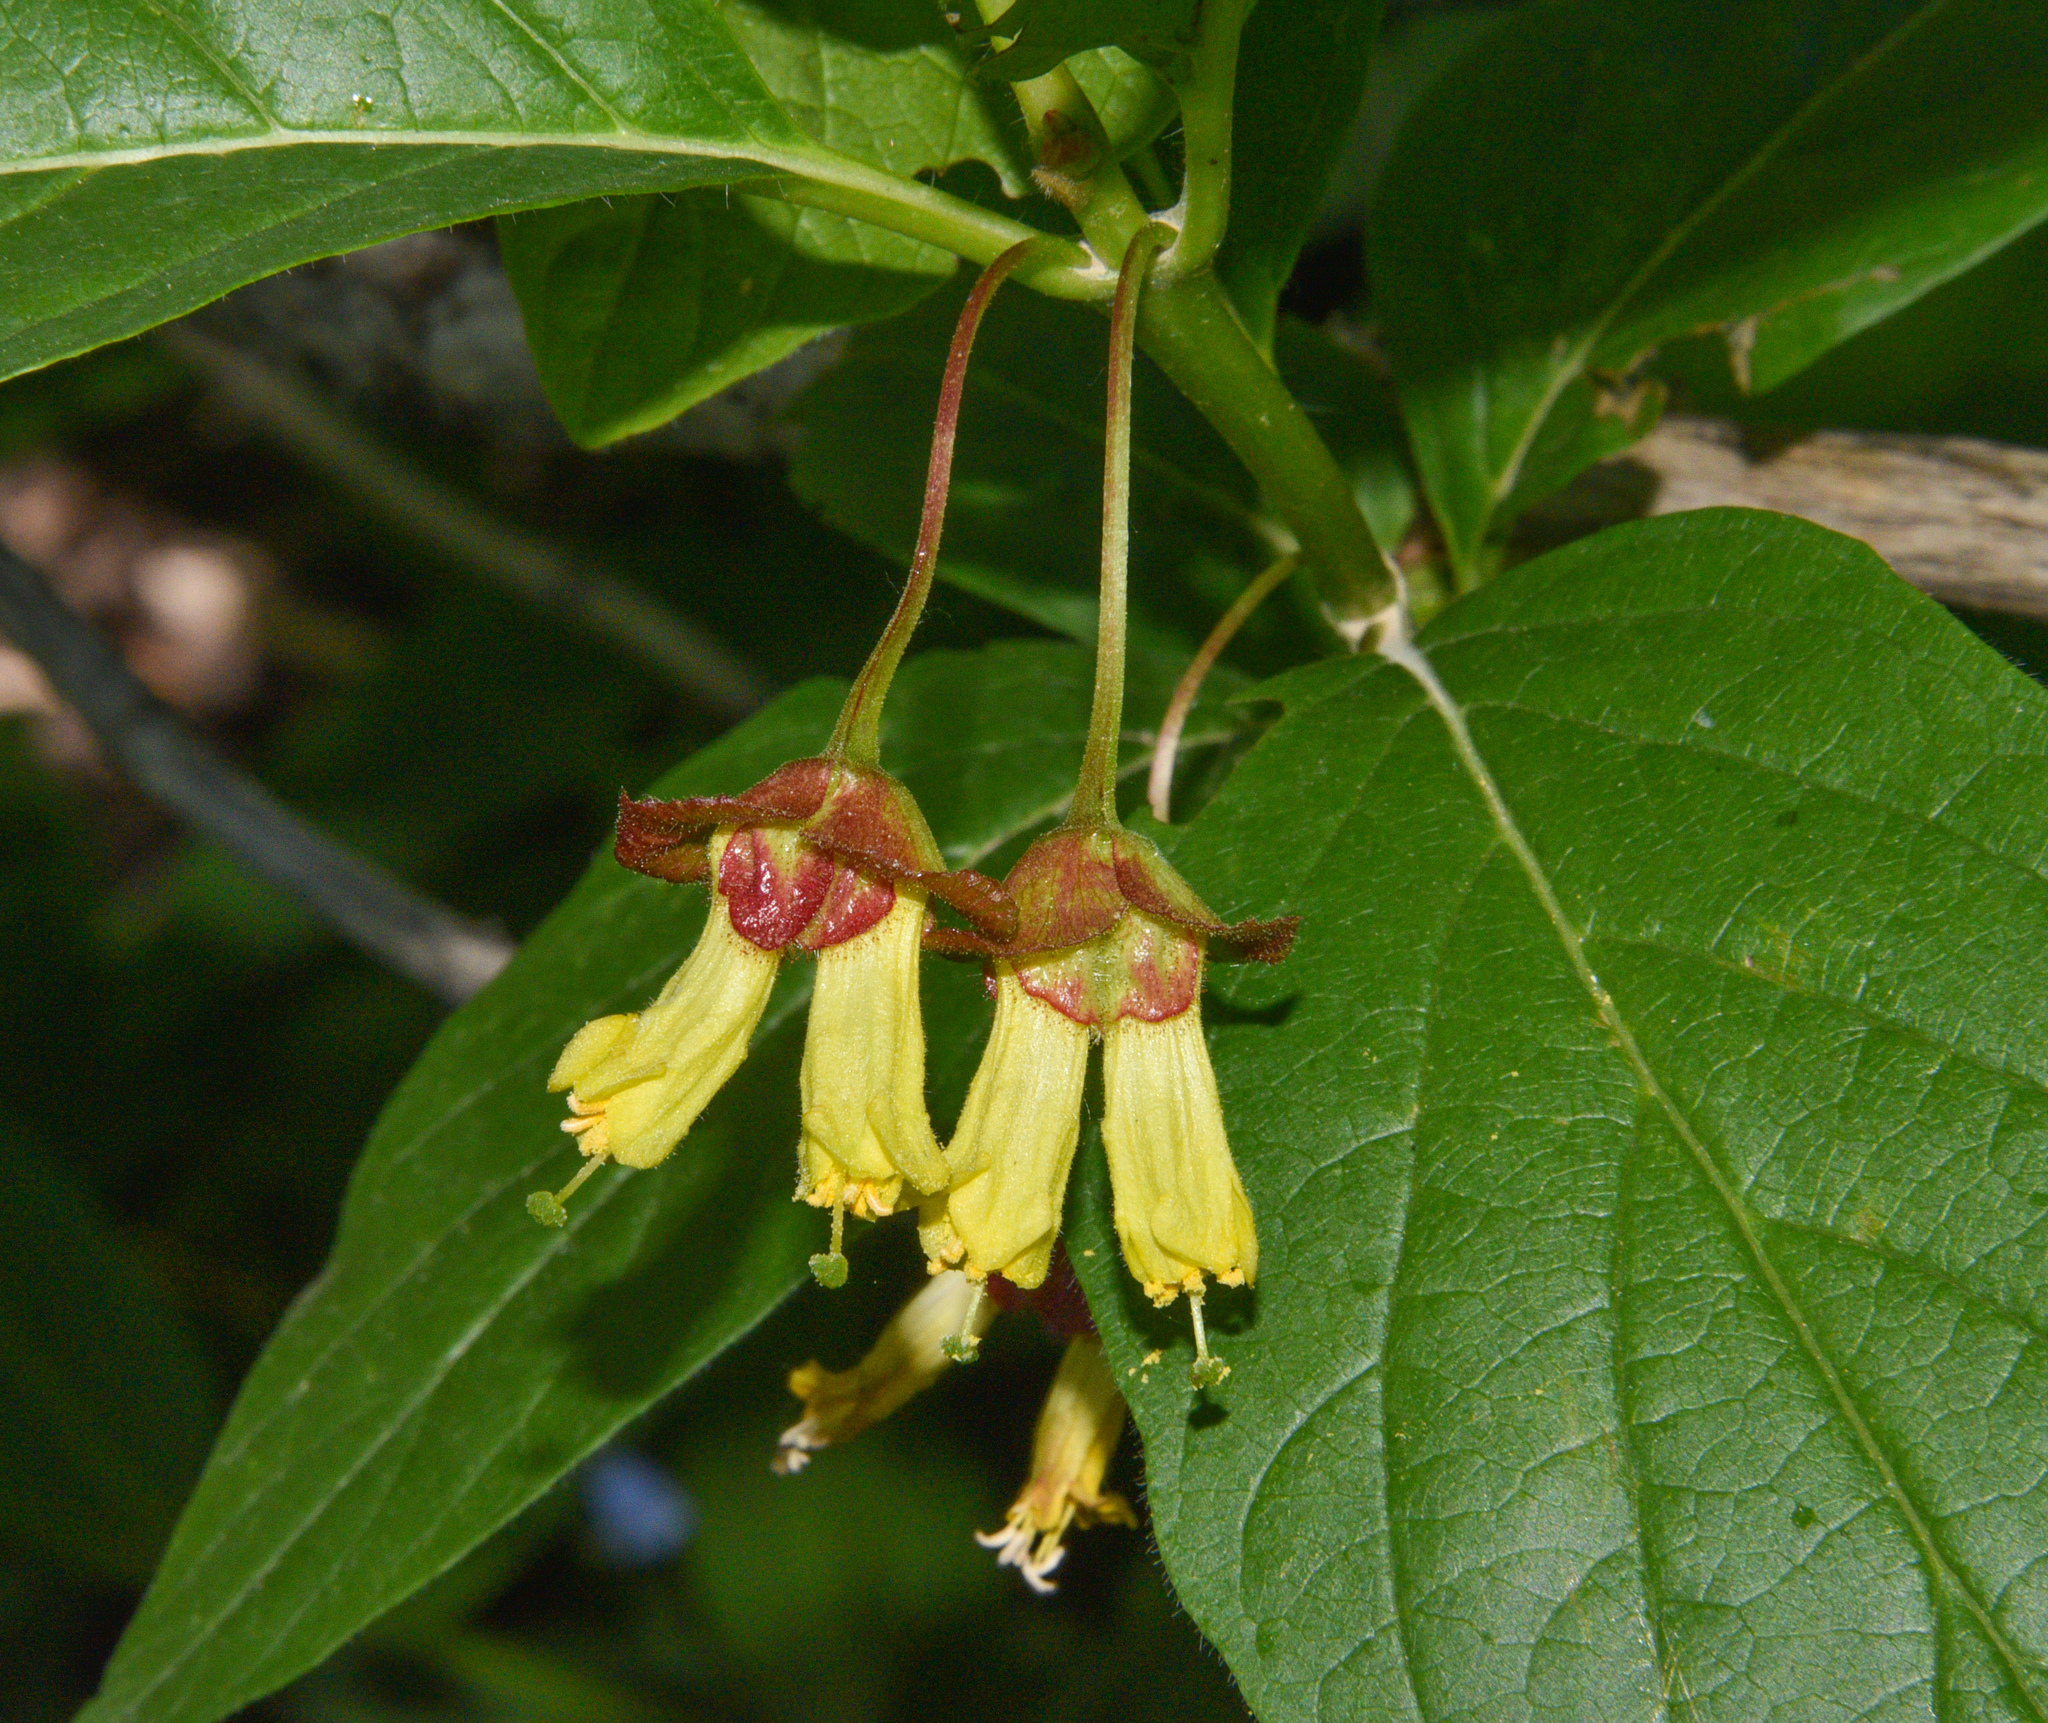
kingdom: Plantae
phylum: Tracheophyta
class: Magnoliopsida
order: Dipsacales
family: Caprifoliaceae
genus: Lonicera
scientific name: Lonicera involucrata
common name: Californian honeysuckle
